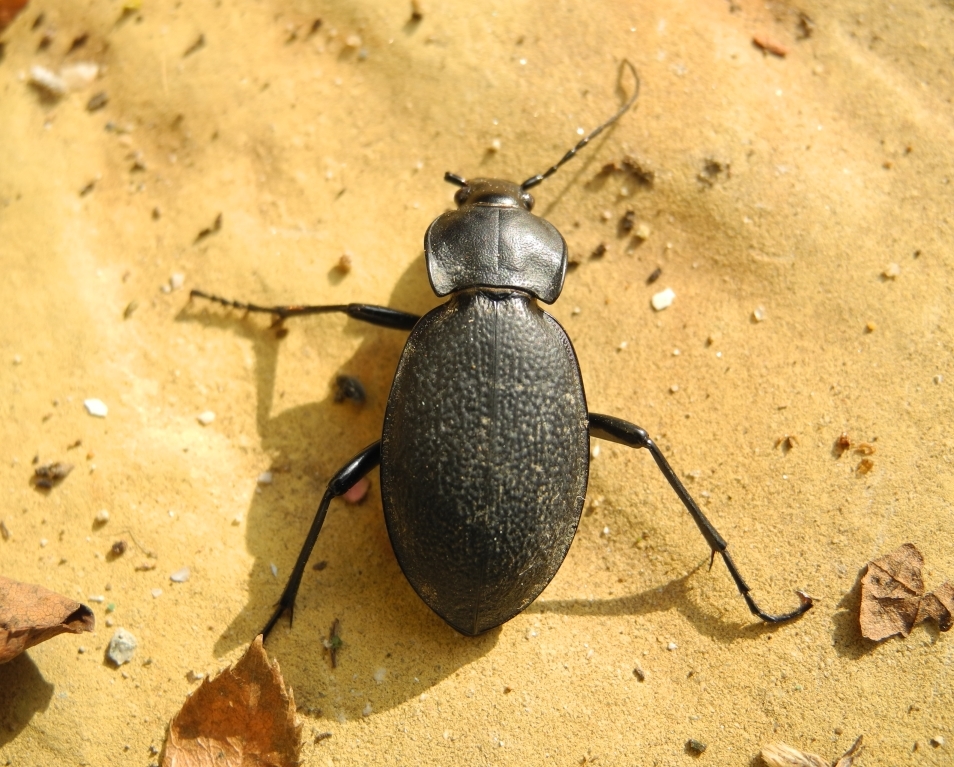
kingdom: Animalia
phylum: Arthropoda
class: Insecta
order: Coleoptera
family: Carabidae
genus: Carabus
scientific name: Carabus coriaceus
